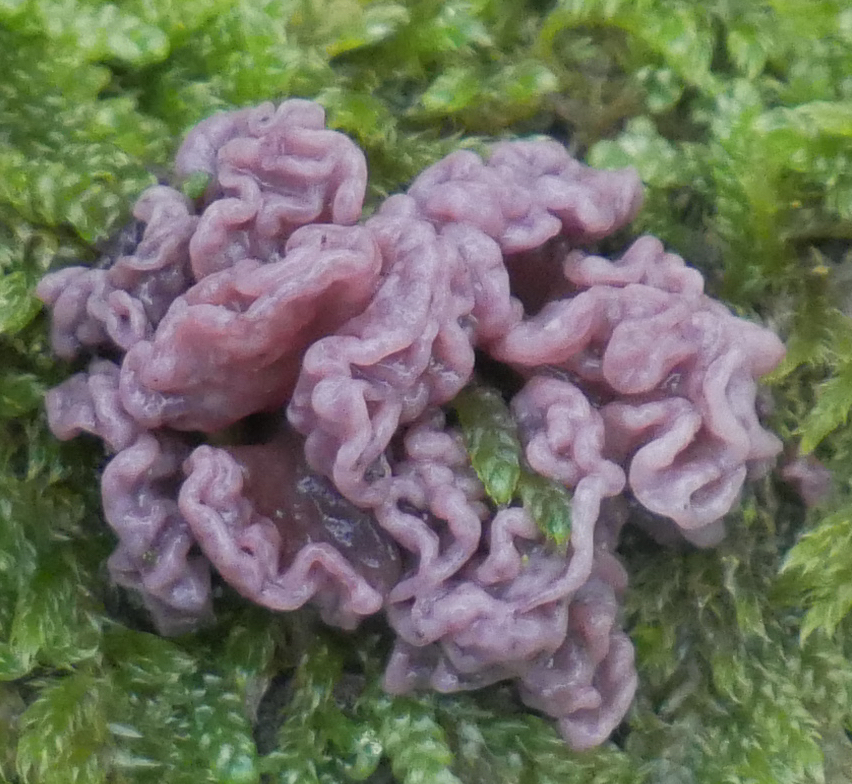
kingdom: Fungi
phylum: Ascomycota
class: Leotiomycetes
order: Helotiales
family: Gelatinodiscaceae
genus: Ascocoryne
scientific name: Ascocoryne
